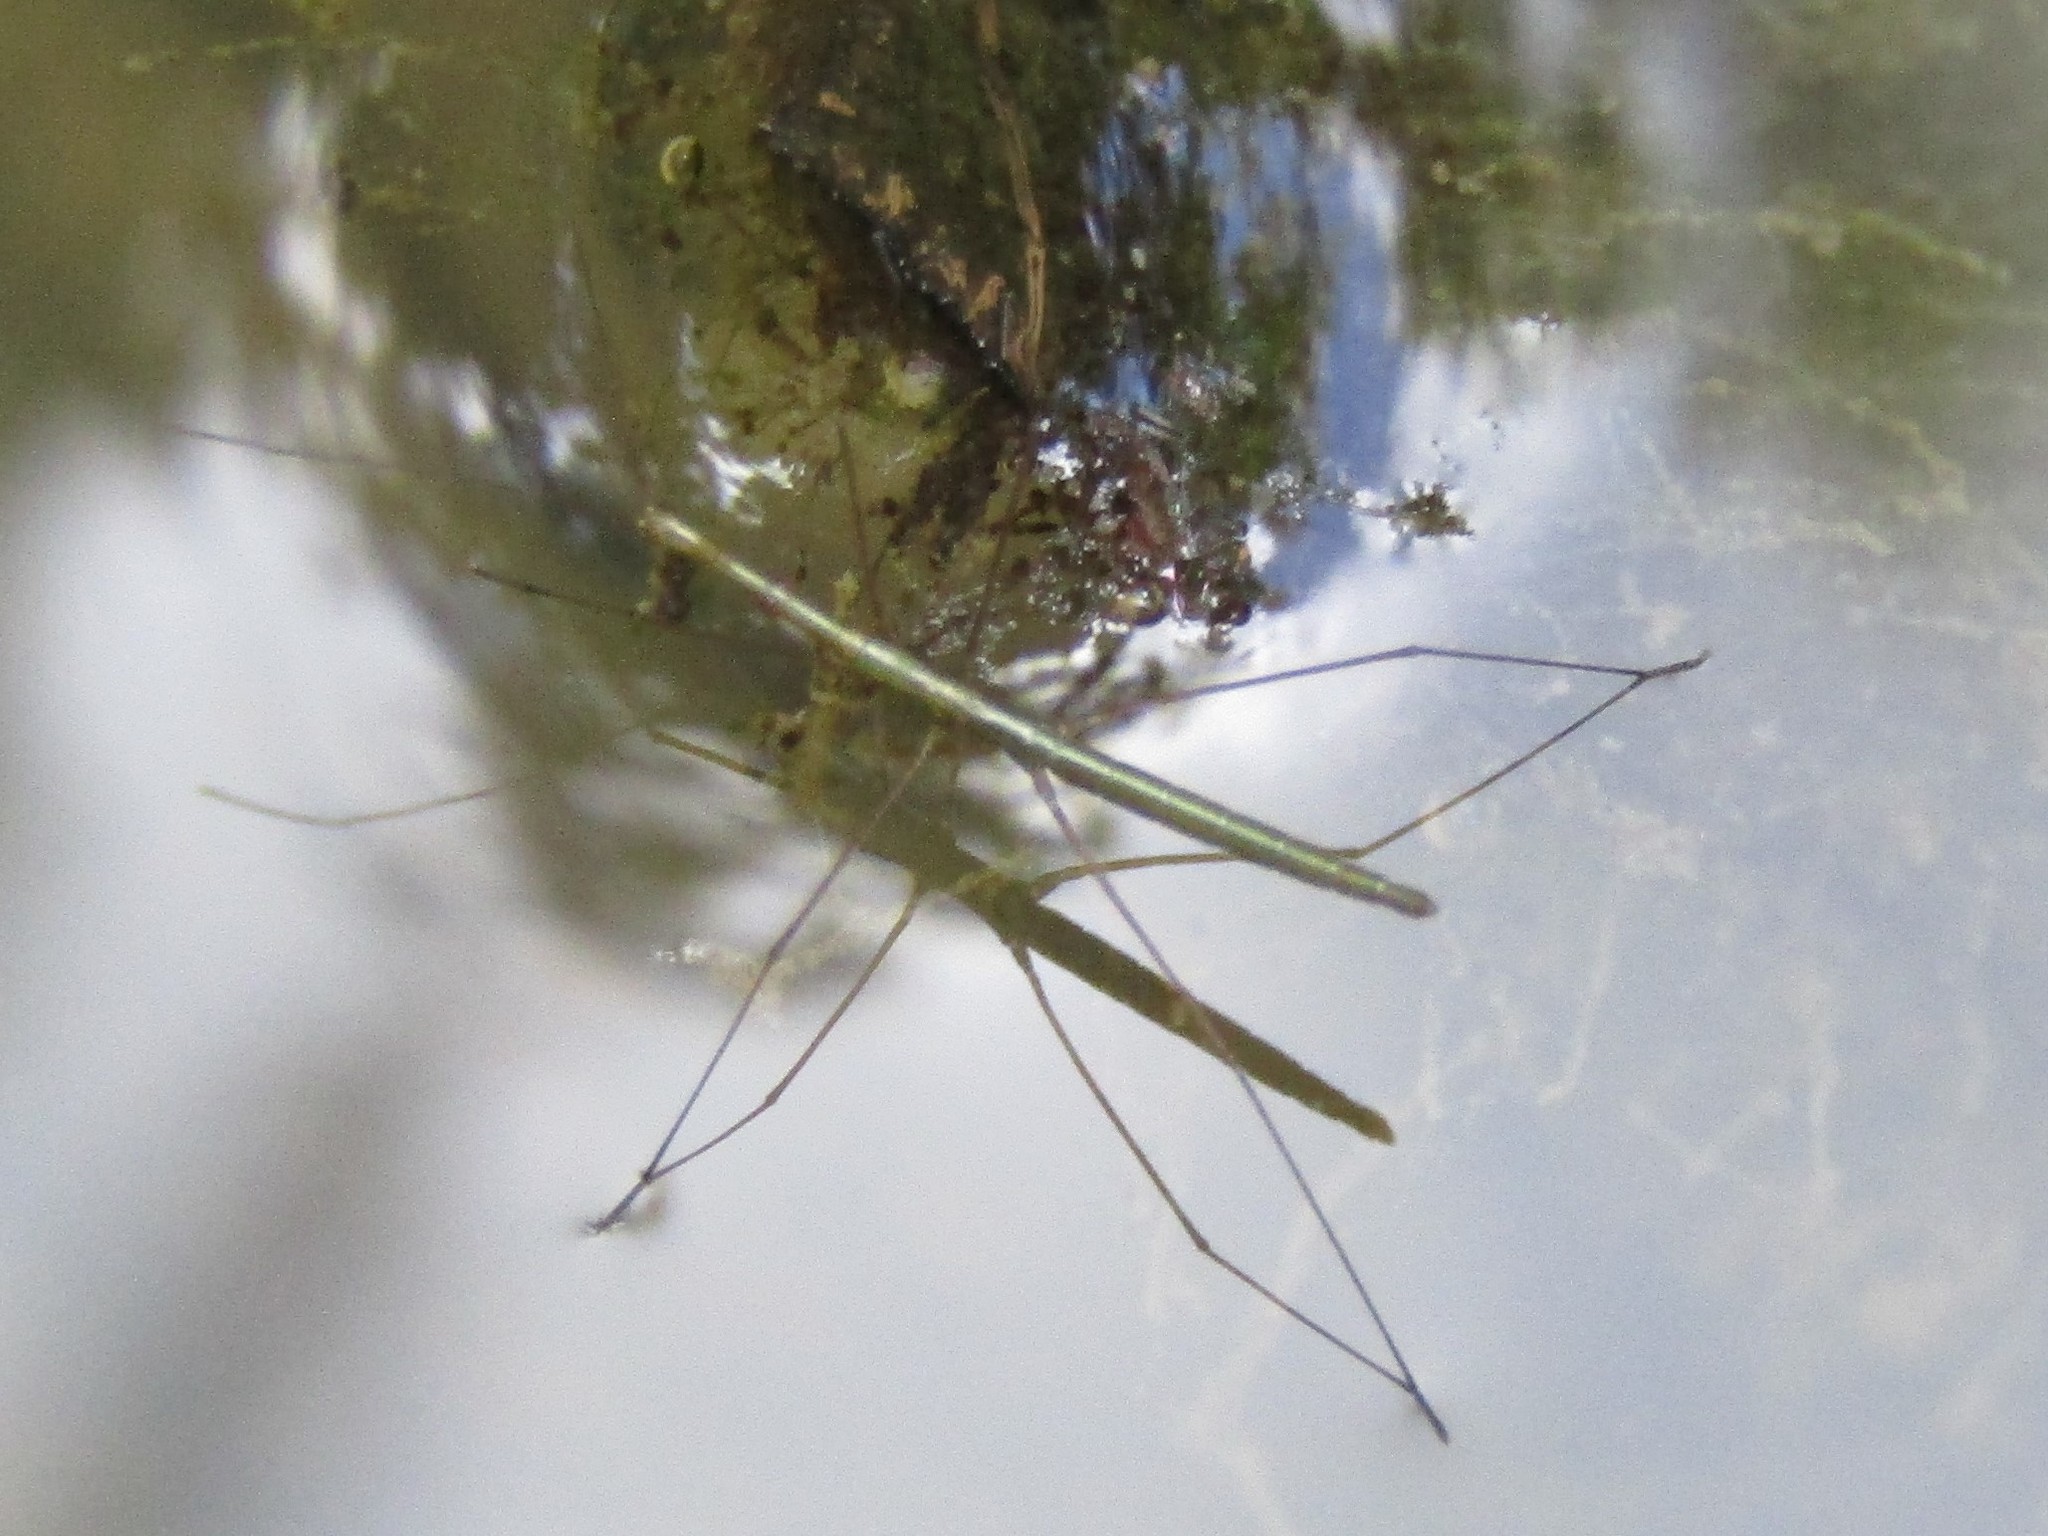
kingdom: Animalia
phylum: Arthropoda
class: Insecta
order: Hemiptera
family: Hydrometridae
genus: Hydrometra
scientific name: Hydrometra
